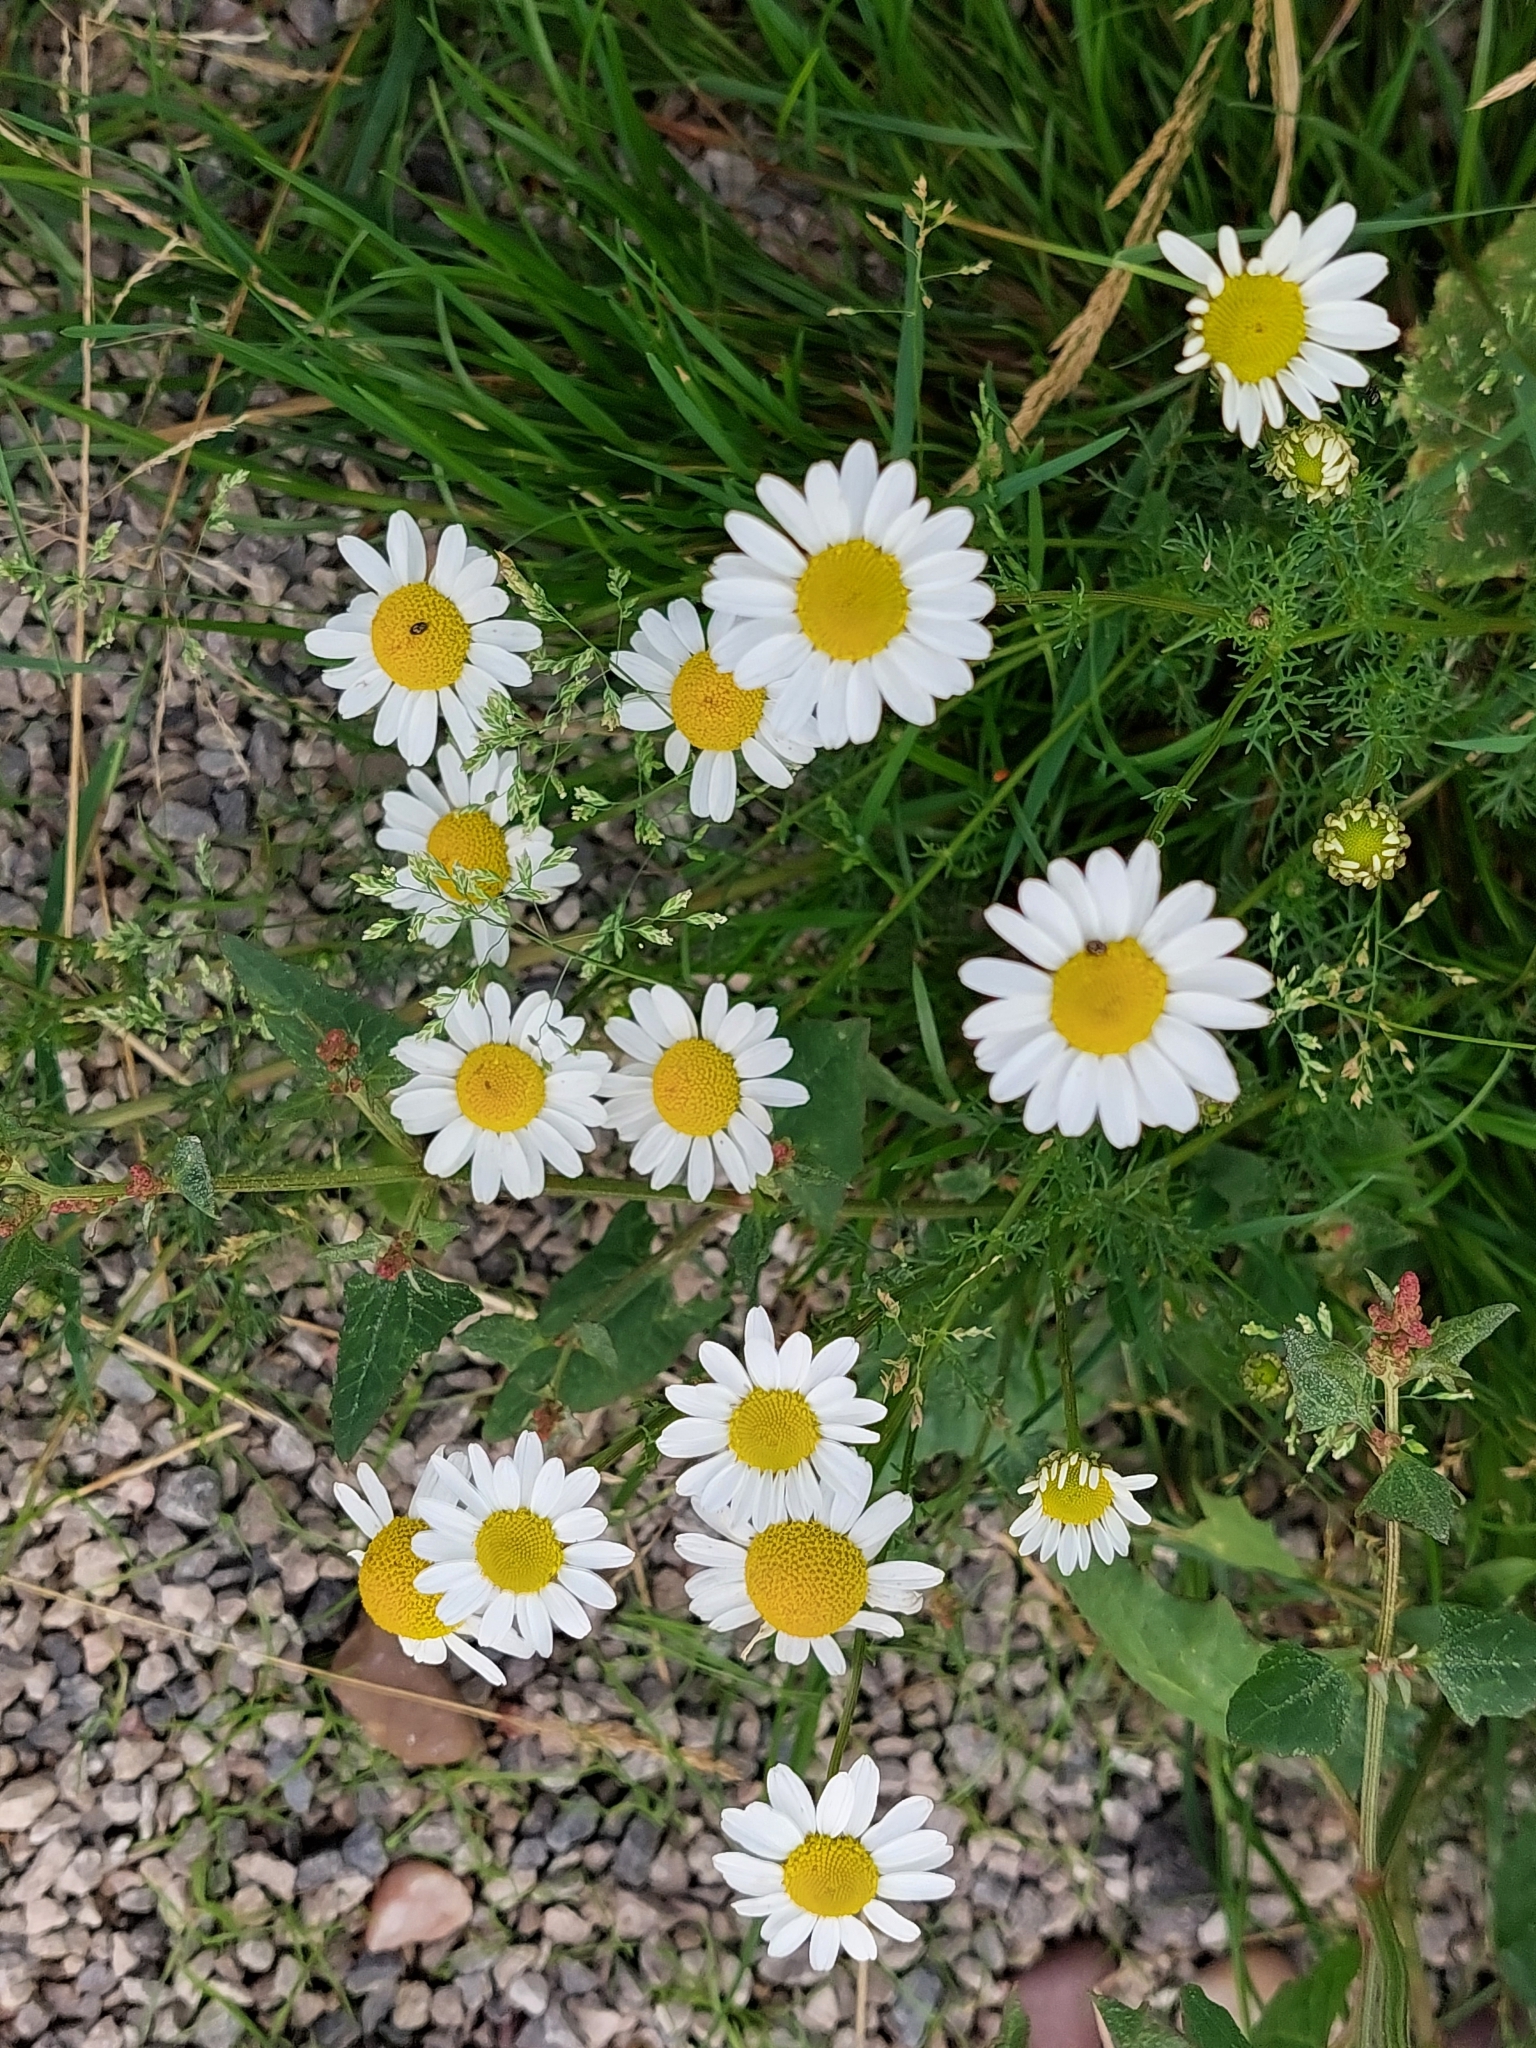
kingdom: Plantae
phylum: Tracheophyta
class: Magnoliopsida
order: Asterales
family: Asteraceae
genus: Tripleurospermum
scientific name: Tripleurospermum inodorum
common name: Scentless mayweed
